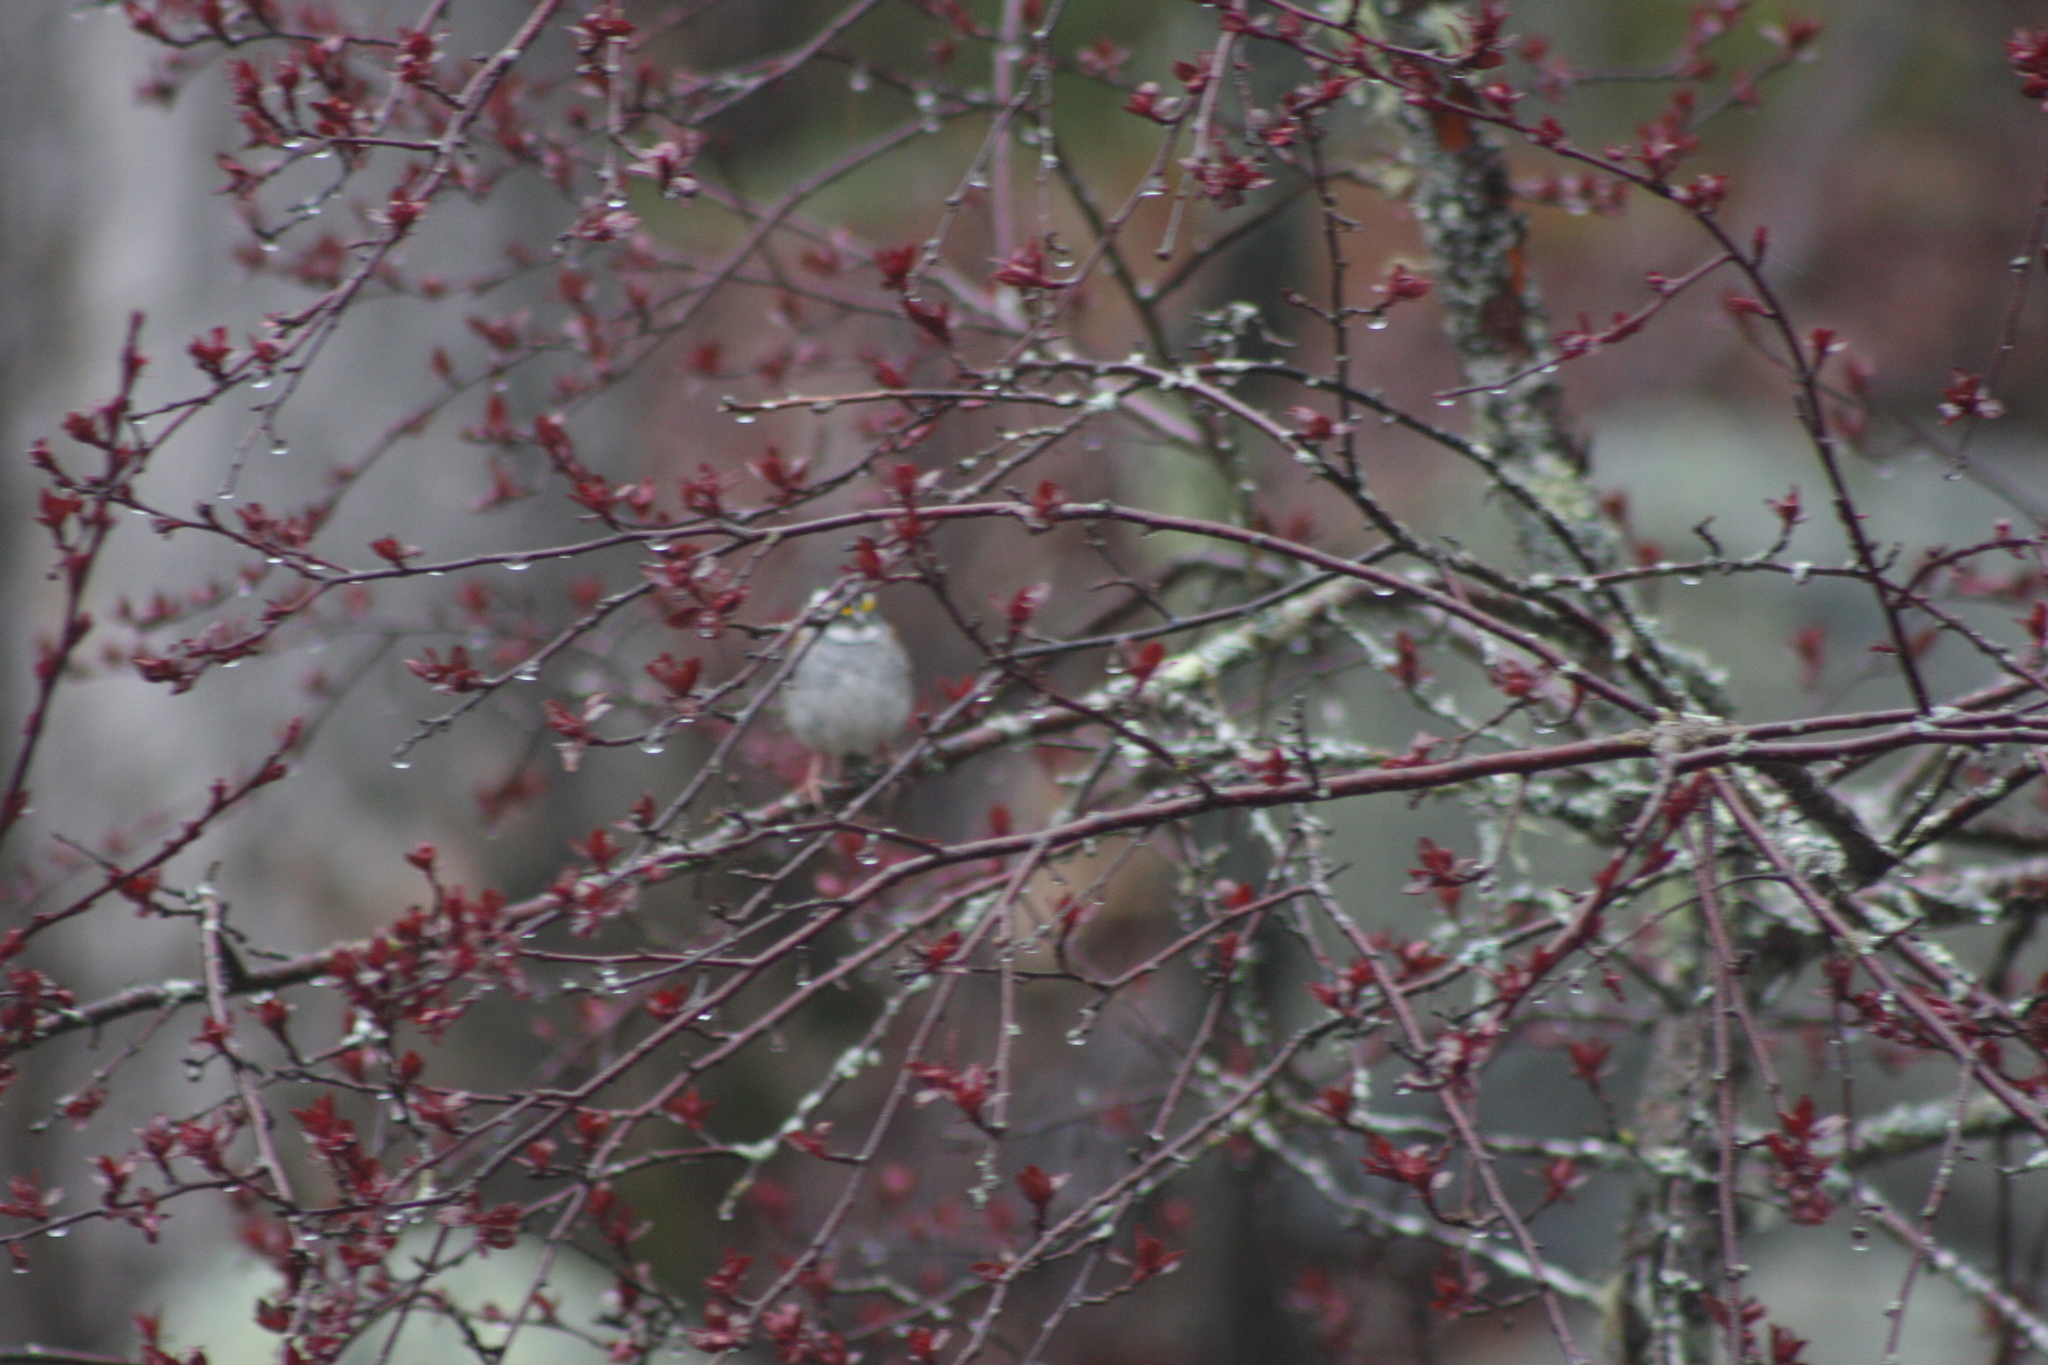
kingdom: Animalia
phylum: Chordata
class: Aves
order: Passeriformes
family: Passerellidae
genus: Zonotrichia
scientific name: Zonotrichia albicollis
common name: White-throated sparrow
